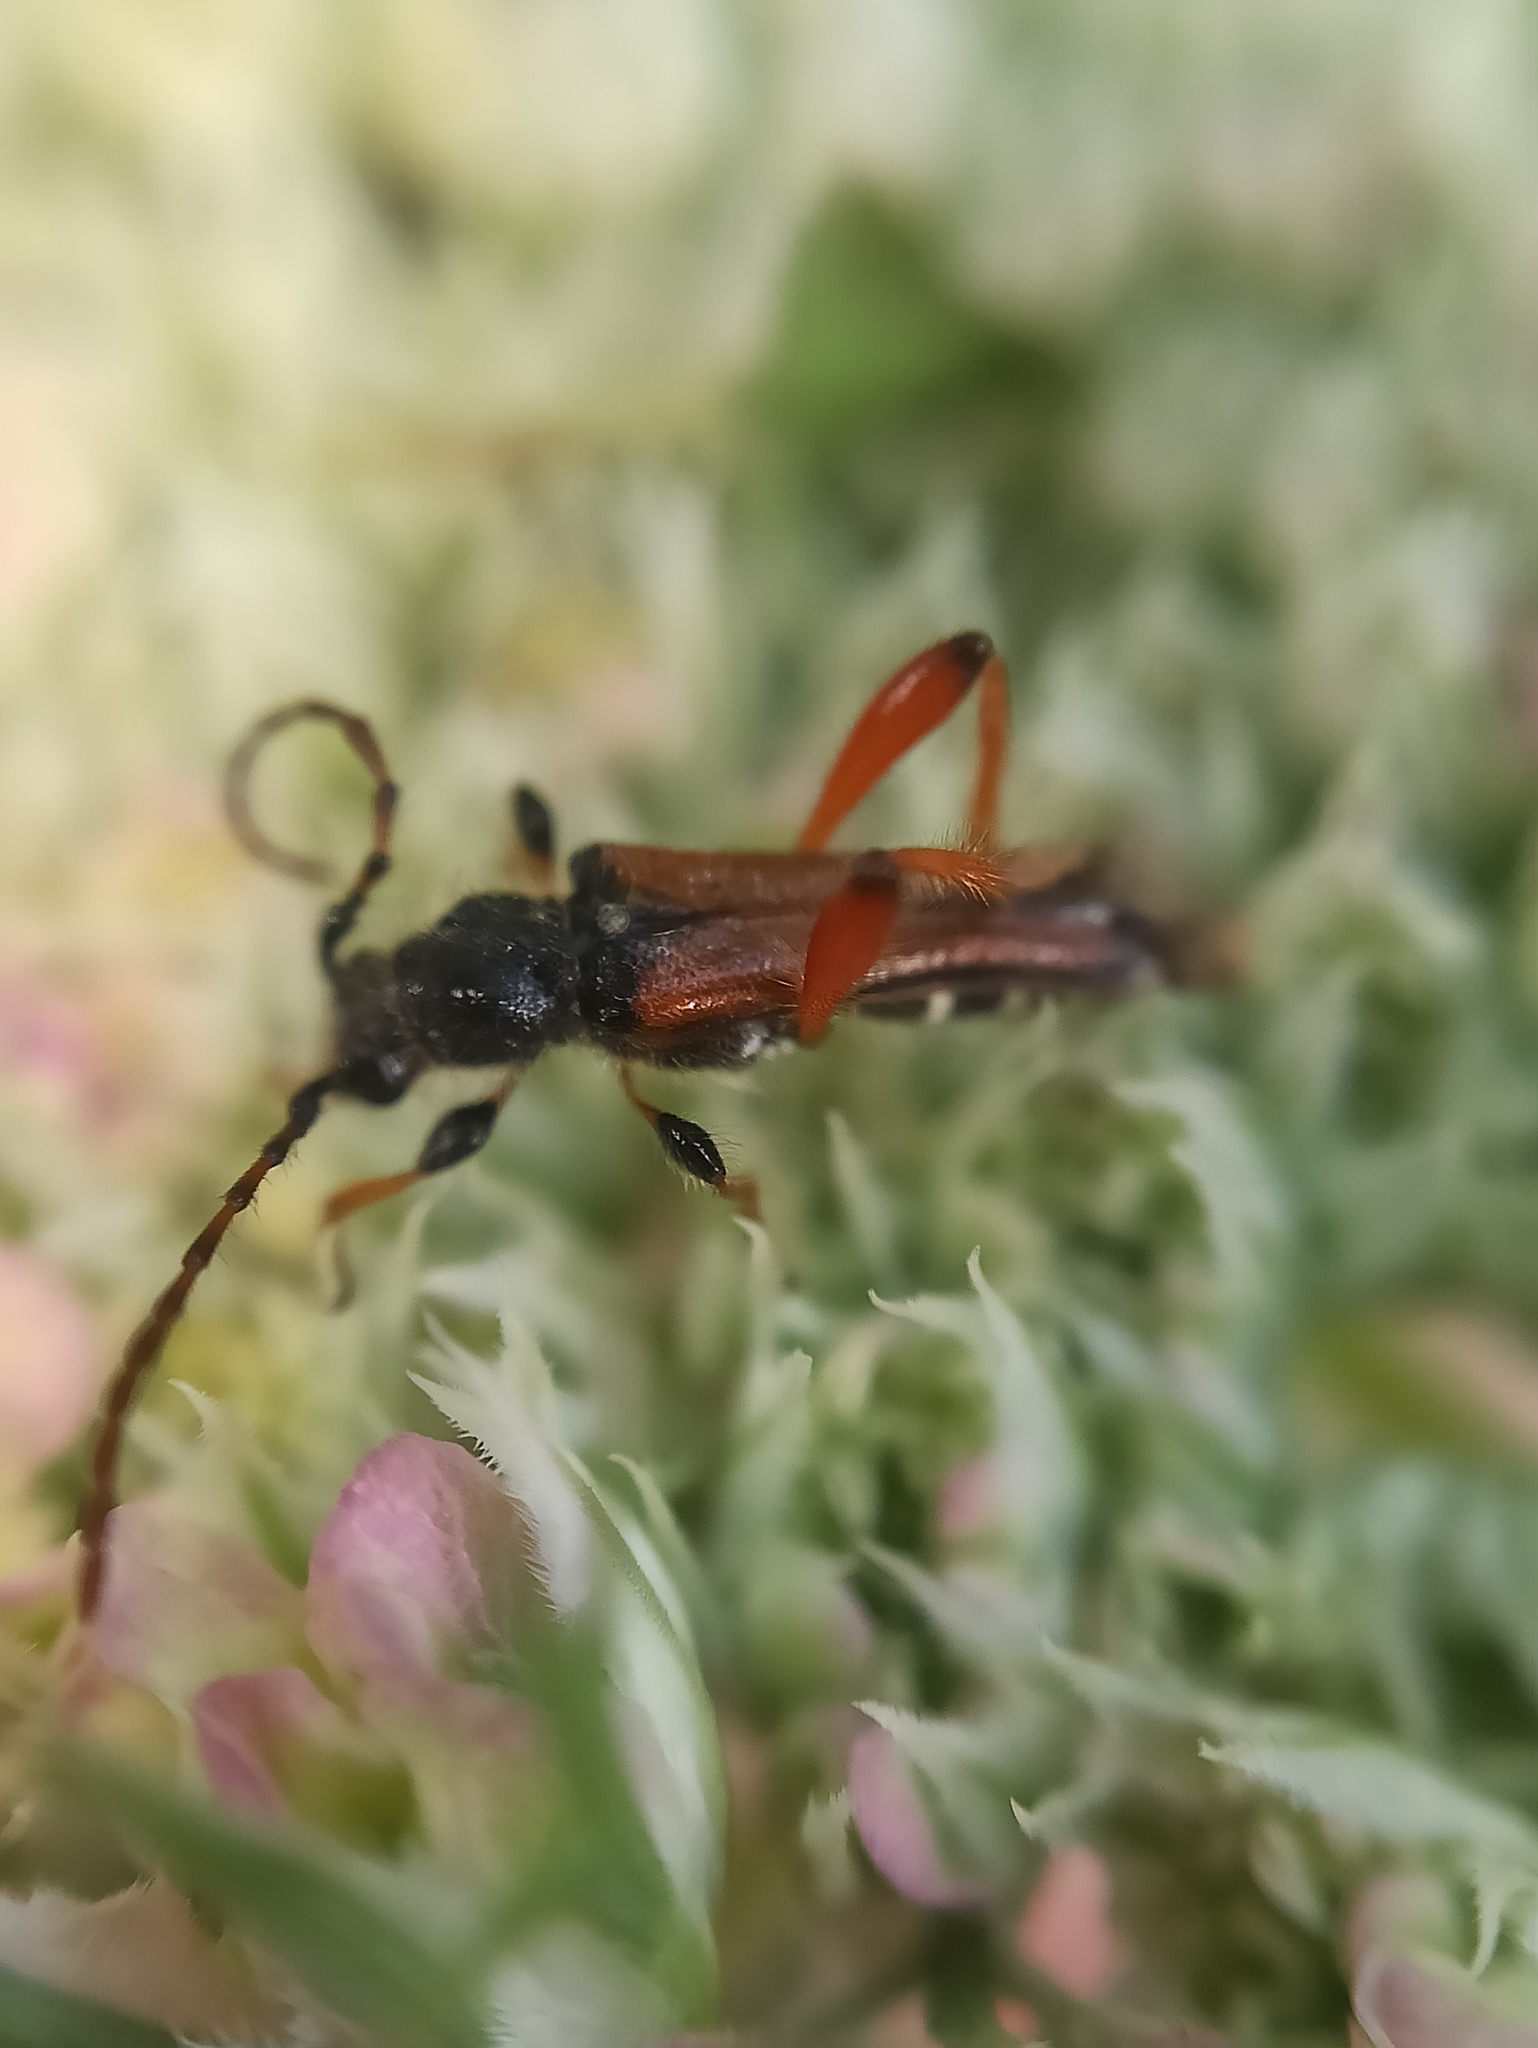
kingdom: Animalia
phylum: Arthropoda
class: Insecta
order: Coleoptera
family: Cerambycidae
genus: Stenopterus
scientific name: Stenopterus rufus
